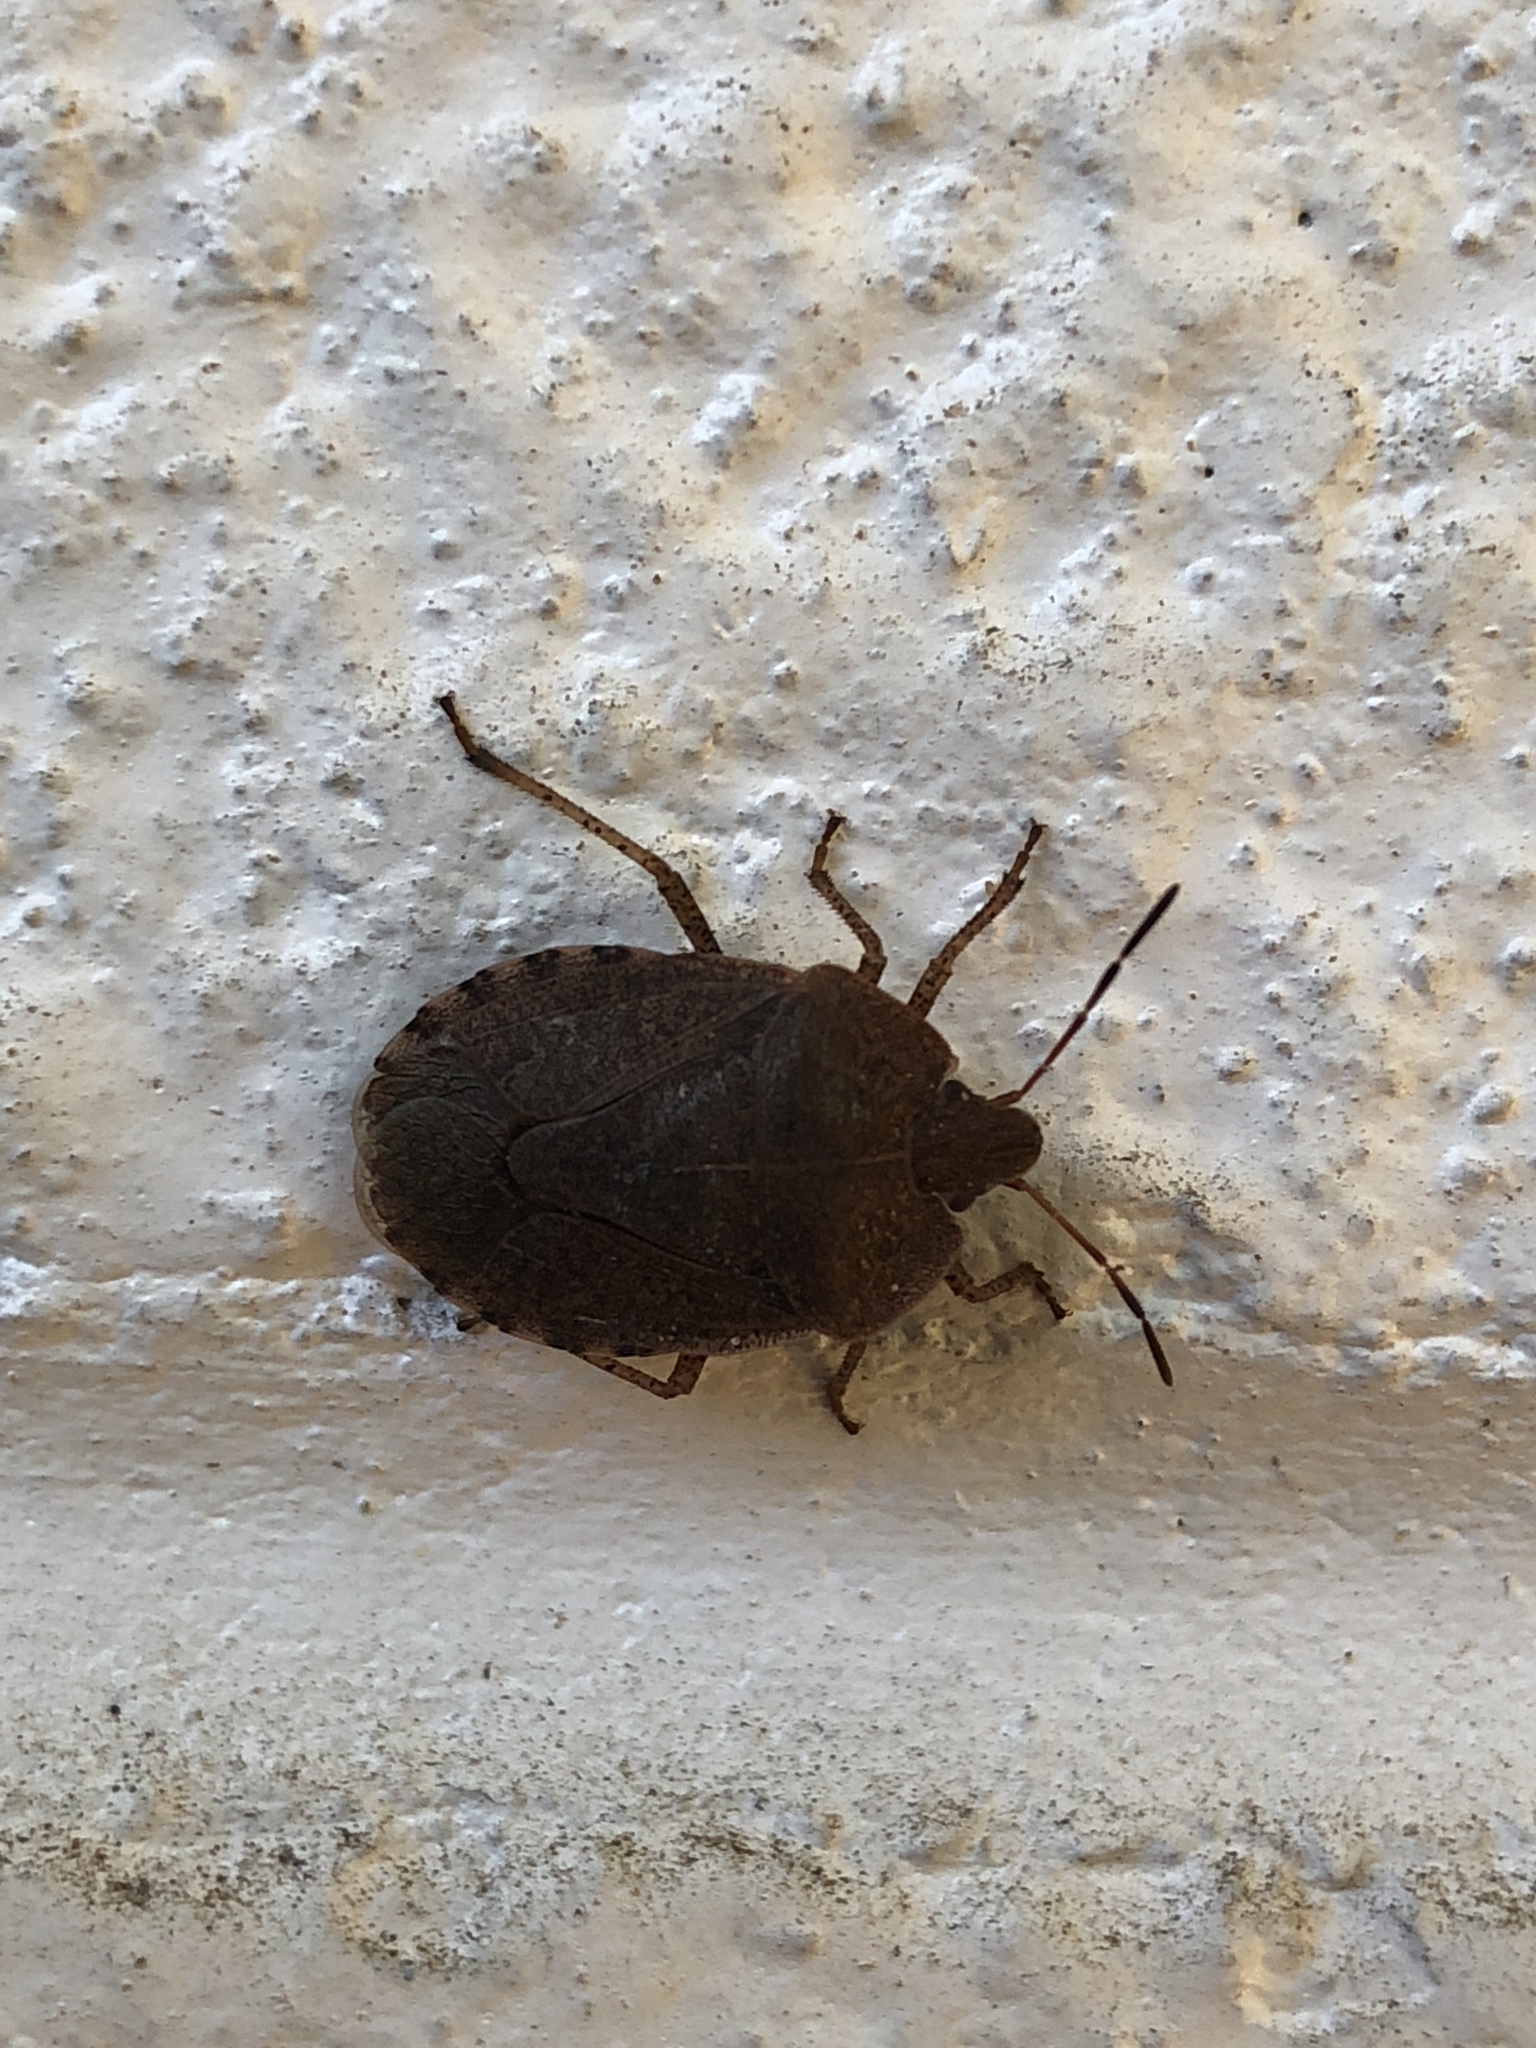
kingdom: Animalia
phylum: Arthropoda
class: Insecta
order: Hemiptera
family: Pentatomidae
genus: Menecles
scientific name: Menecles insertus
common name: Elf shoe stink bug
